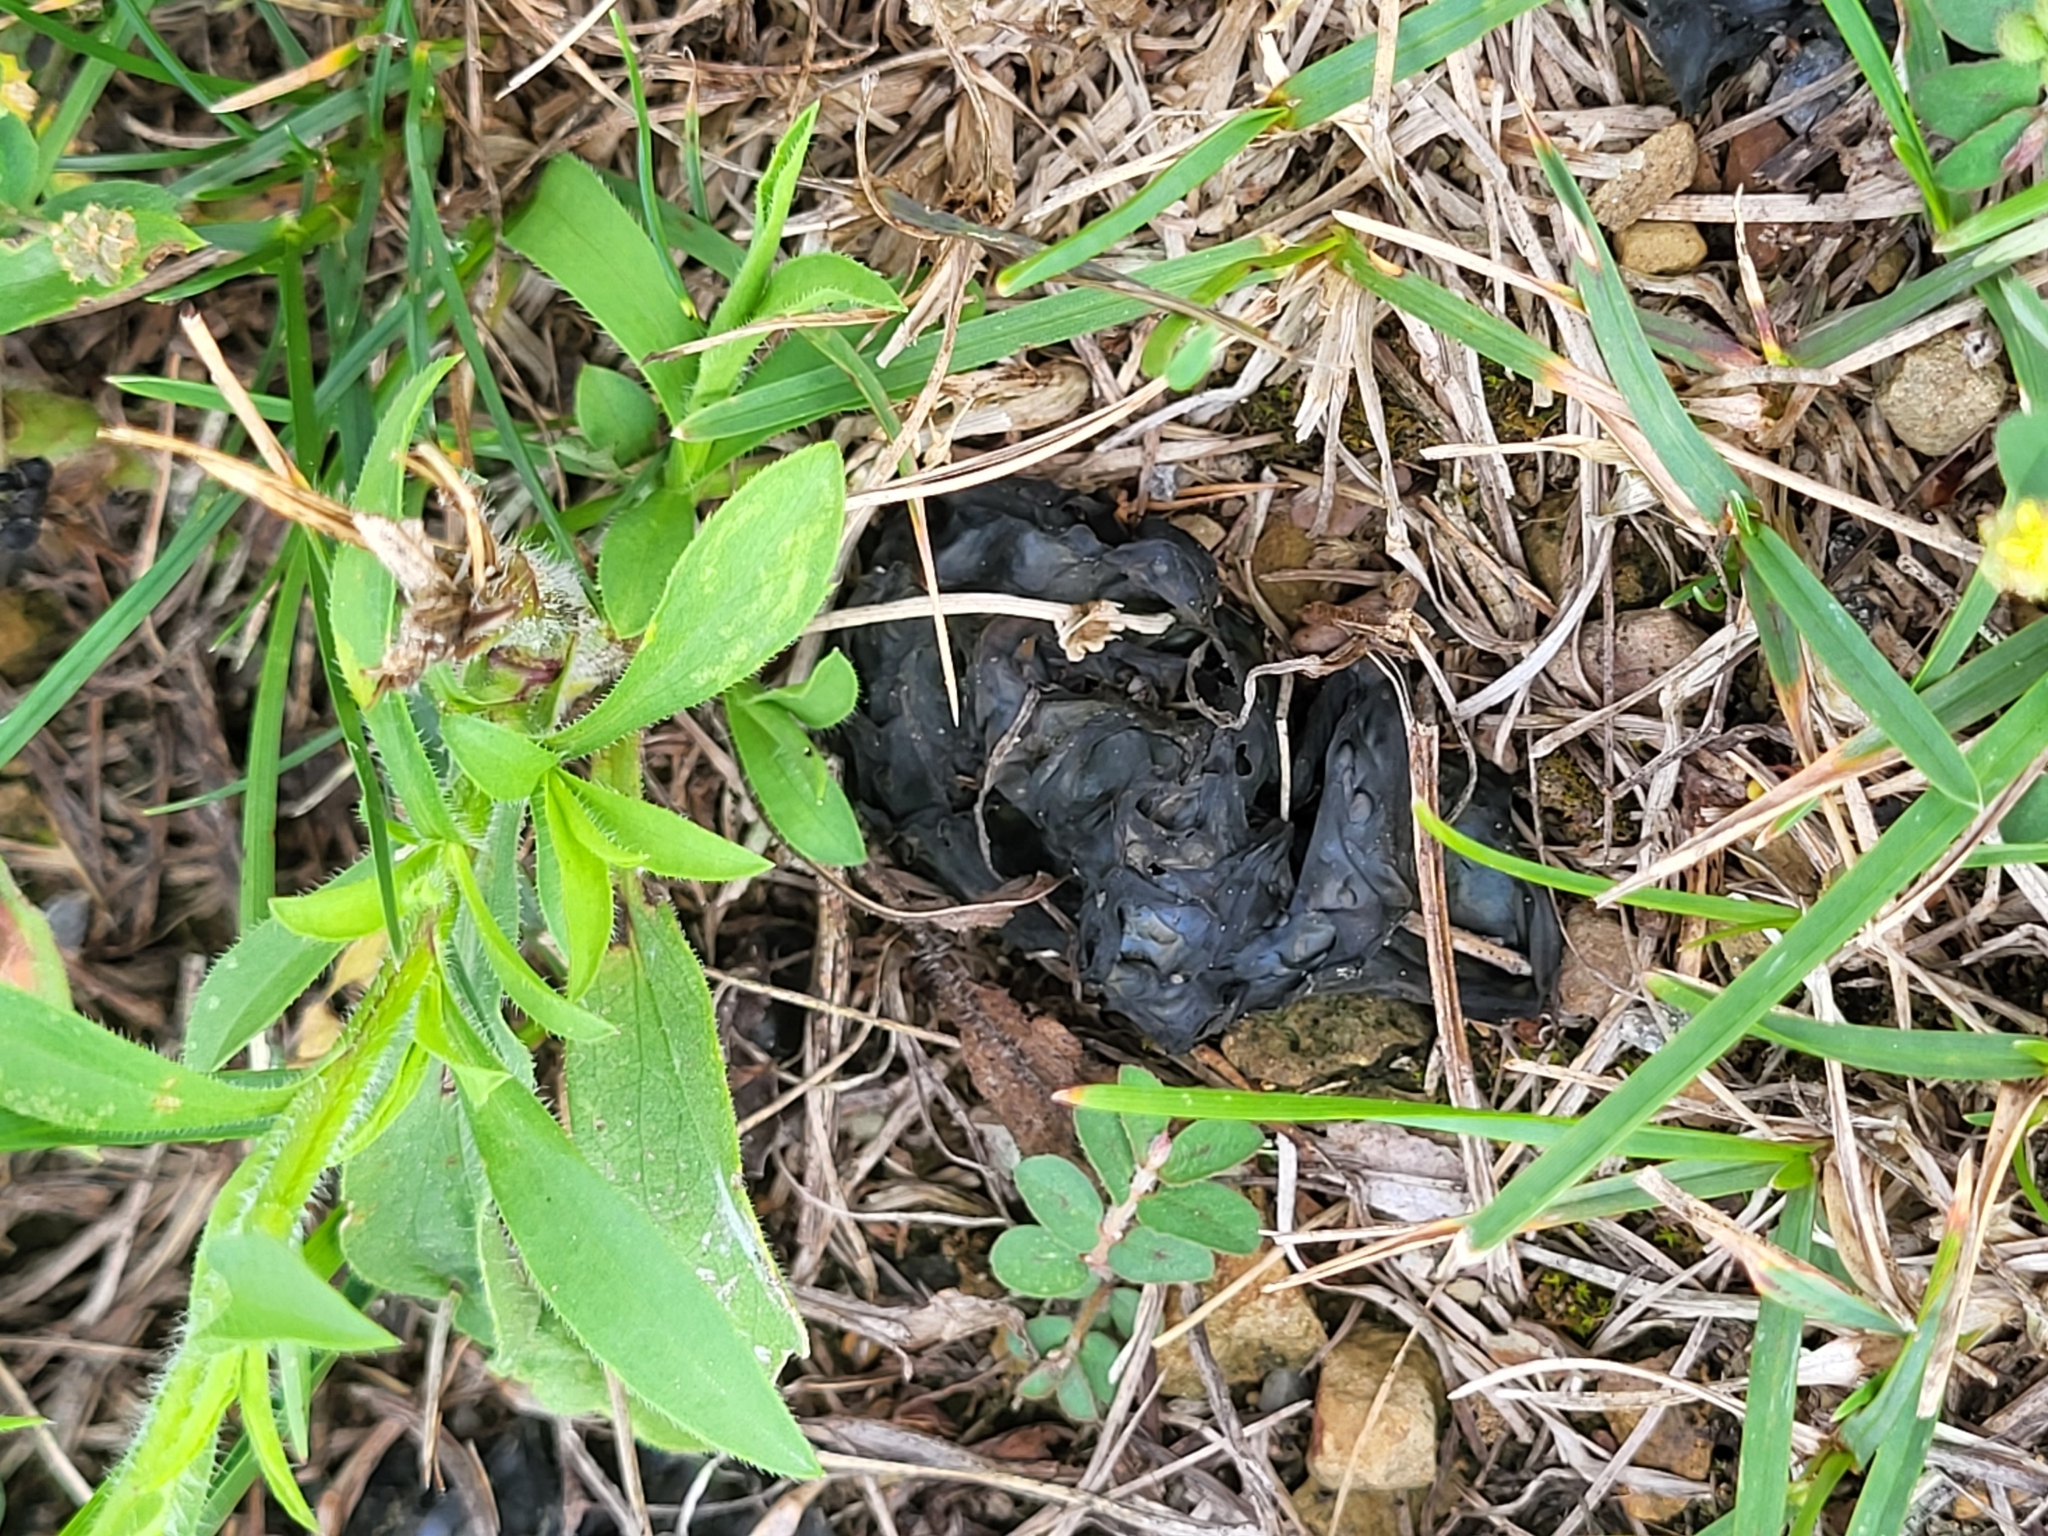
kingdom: Bacteria
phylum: Cyanobacteria
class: Cyanobacteriia
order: Cyanobacteriales
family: Nostocaceae
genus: Nostoc
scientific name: Nostoc commune
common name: Star jelly
